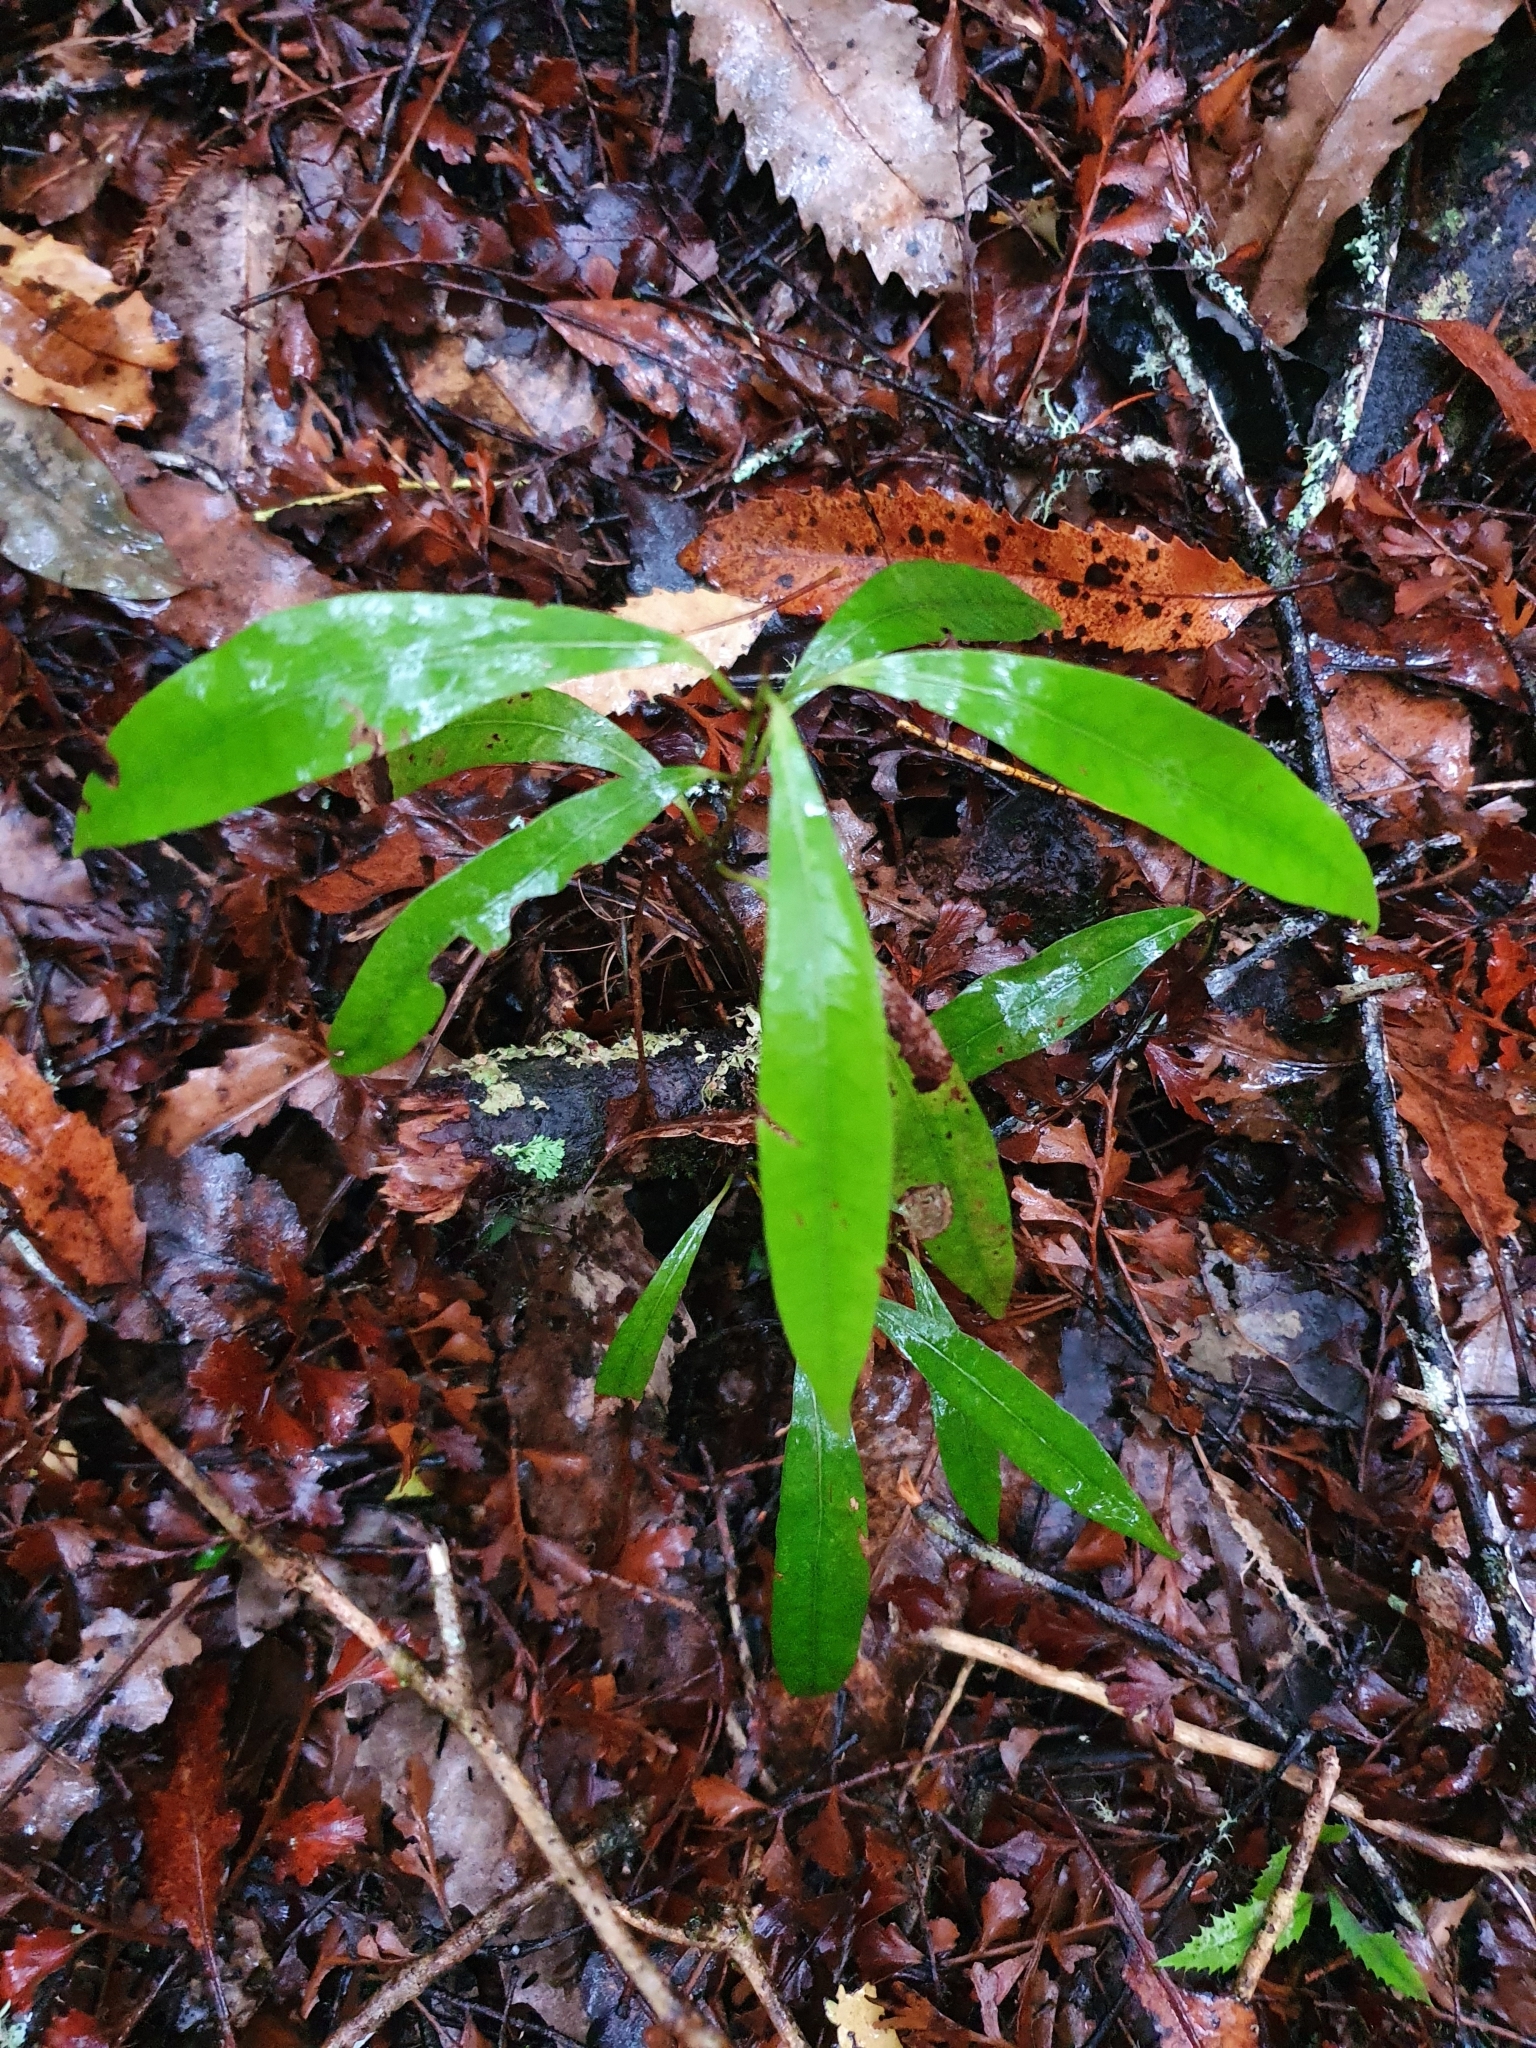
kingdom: Plantae
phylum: Tracheophyta
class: Magnoliopsida
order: Laurales
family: Lauraceae
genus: Beilschmiedia
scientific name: Beilschmiedia tawa
